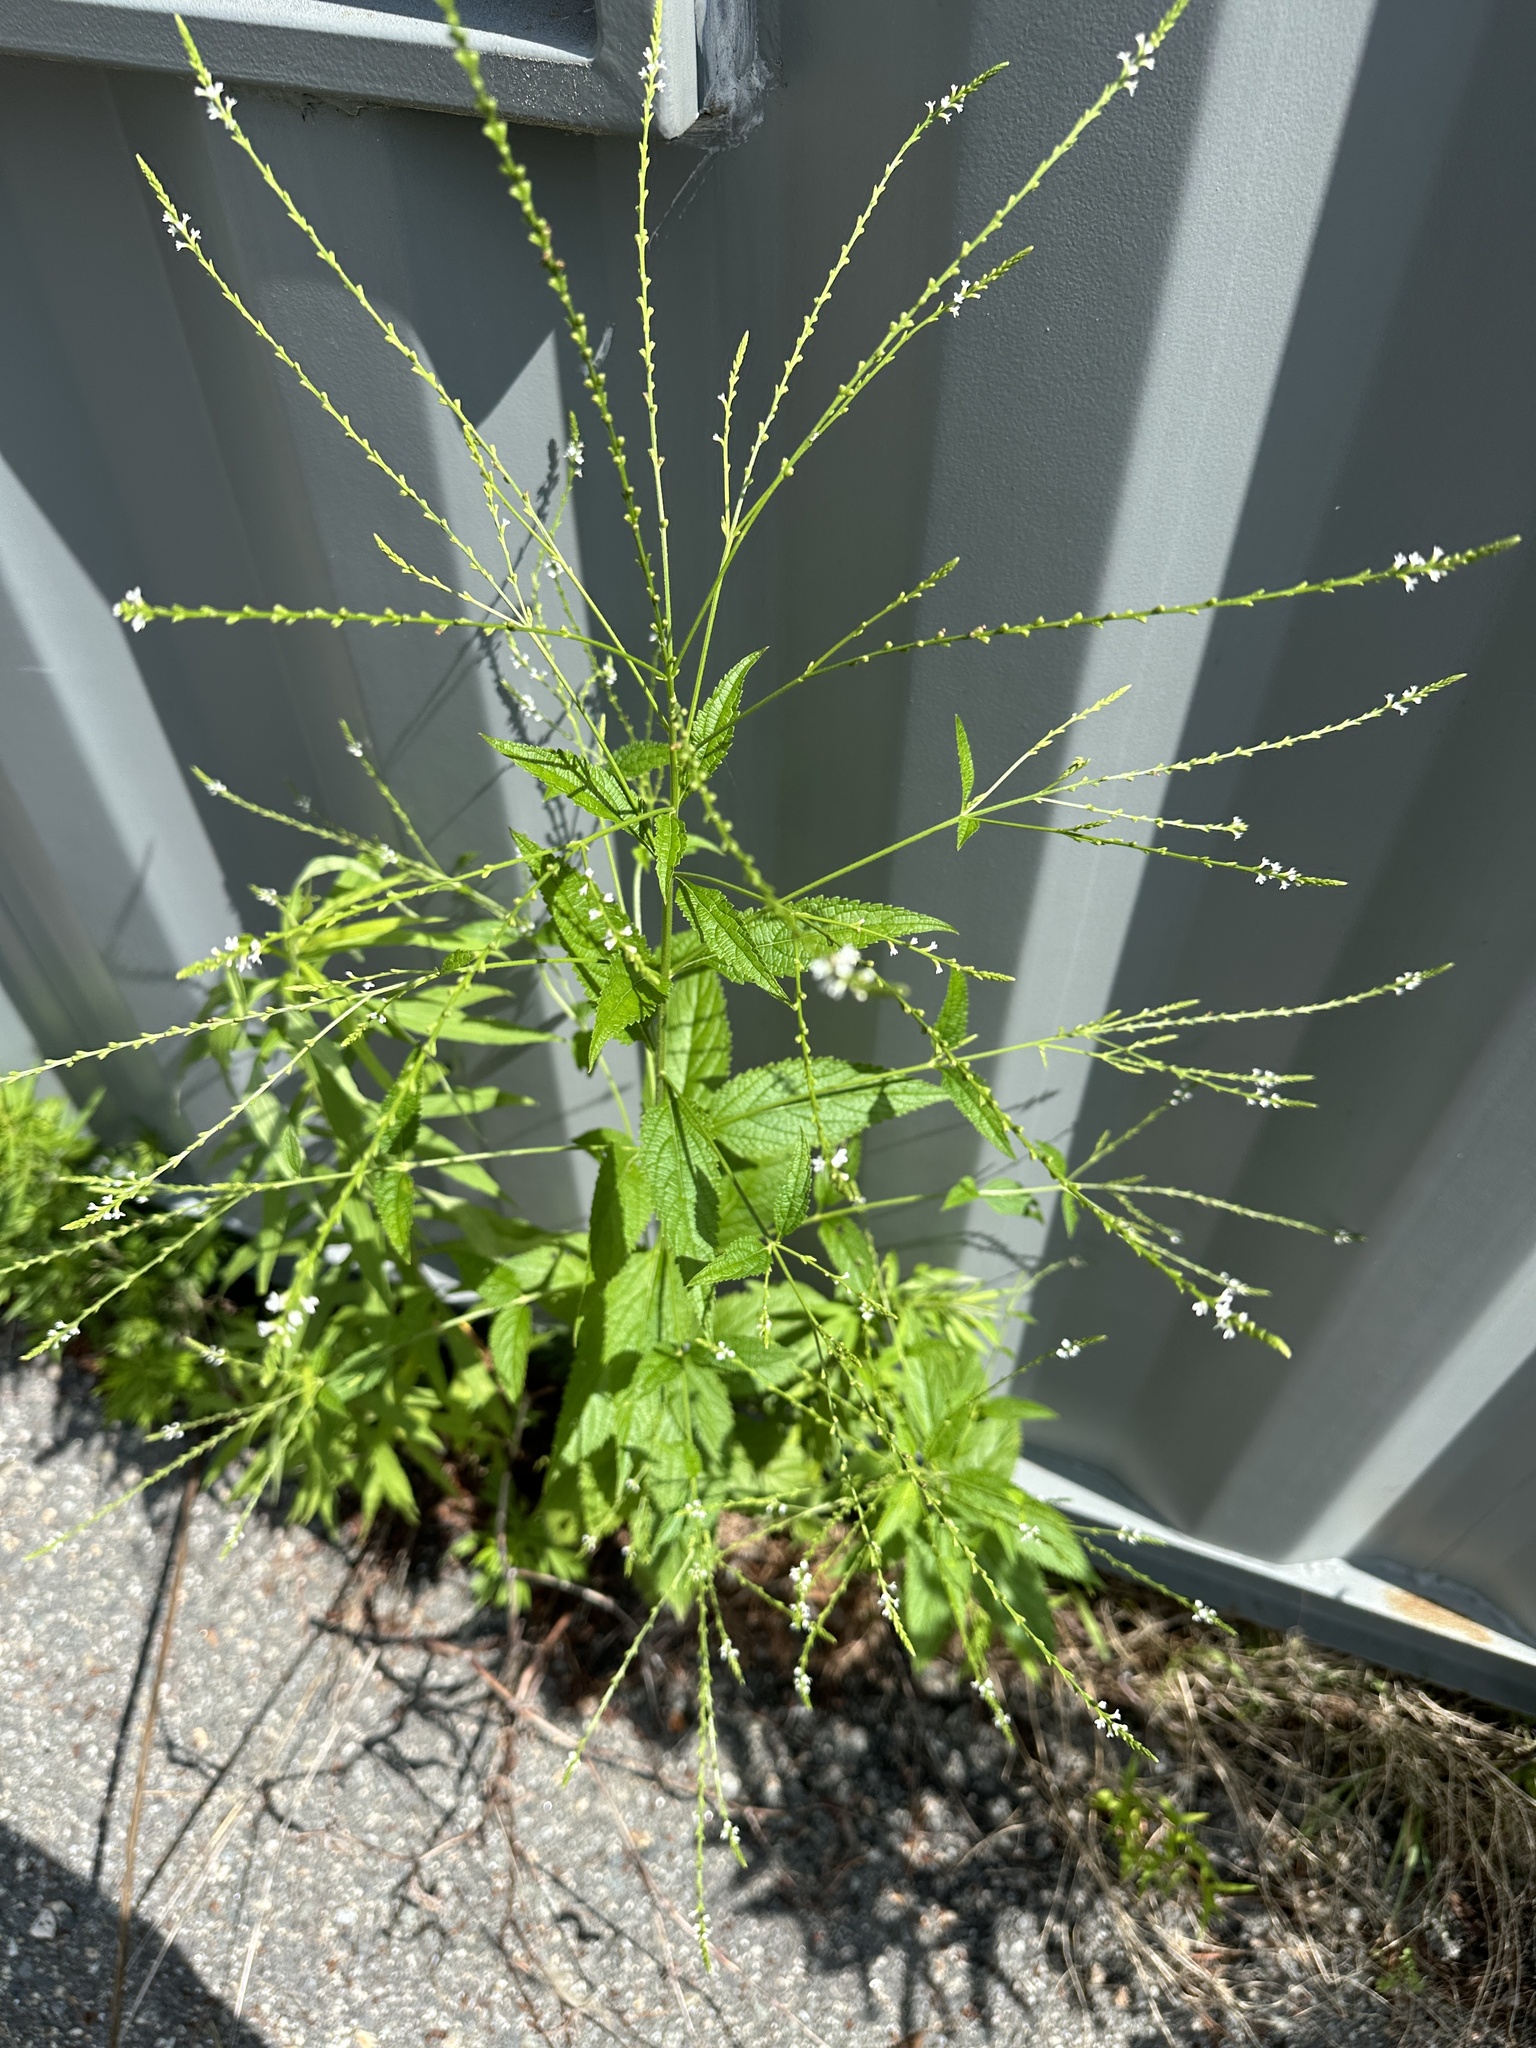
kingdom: Plantae
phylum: Tracheophyta
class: Magnoliopsida
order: Lamiales
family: Verbenaceae
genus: Verbena
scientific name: Verbena urticifolia
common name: Nettle-leaved vervain
